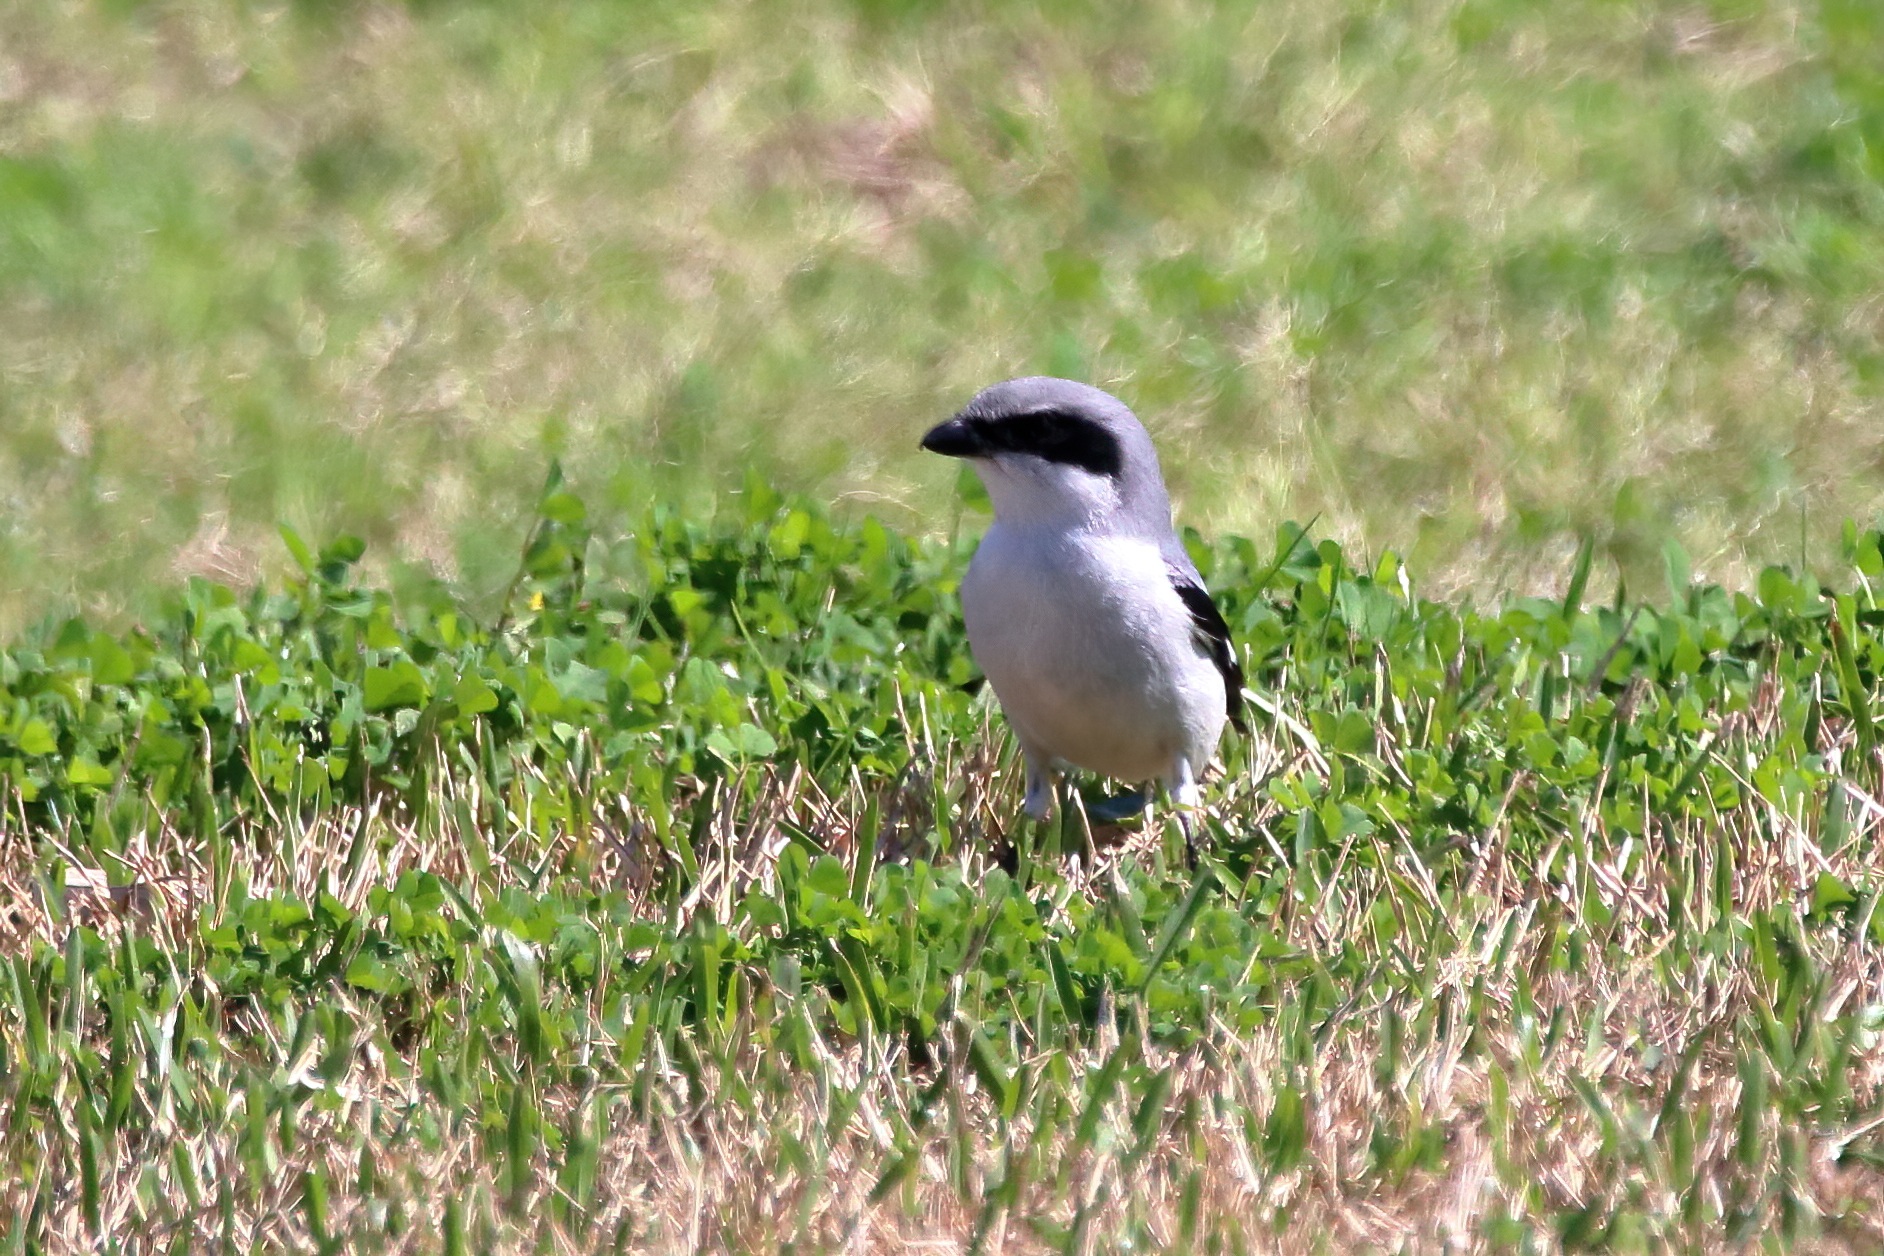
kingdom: Animalia
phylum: Chordata
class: Aves
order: Passeriformes
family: Laniidae
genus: Lanius
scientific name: Lanius ludovicianus
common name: Loggerhead shrike
